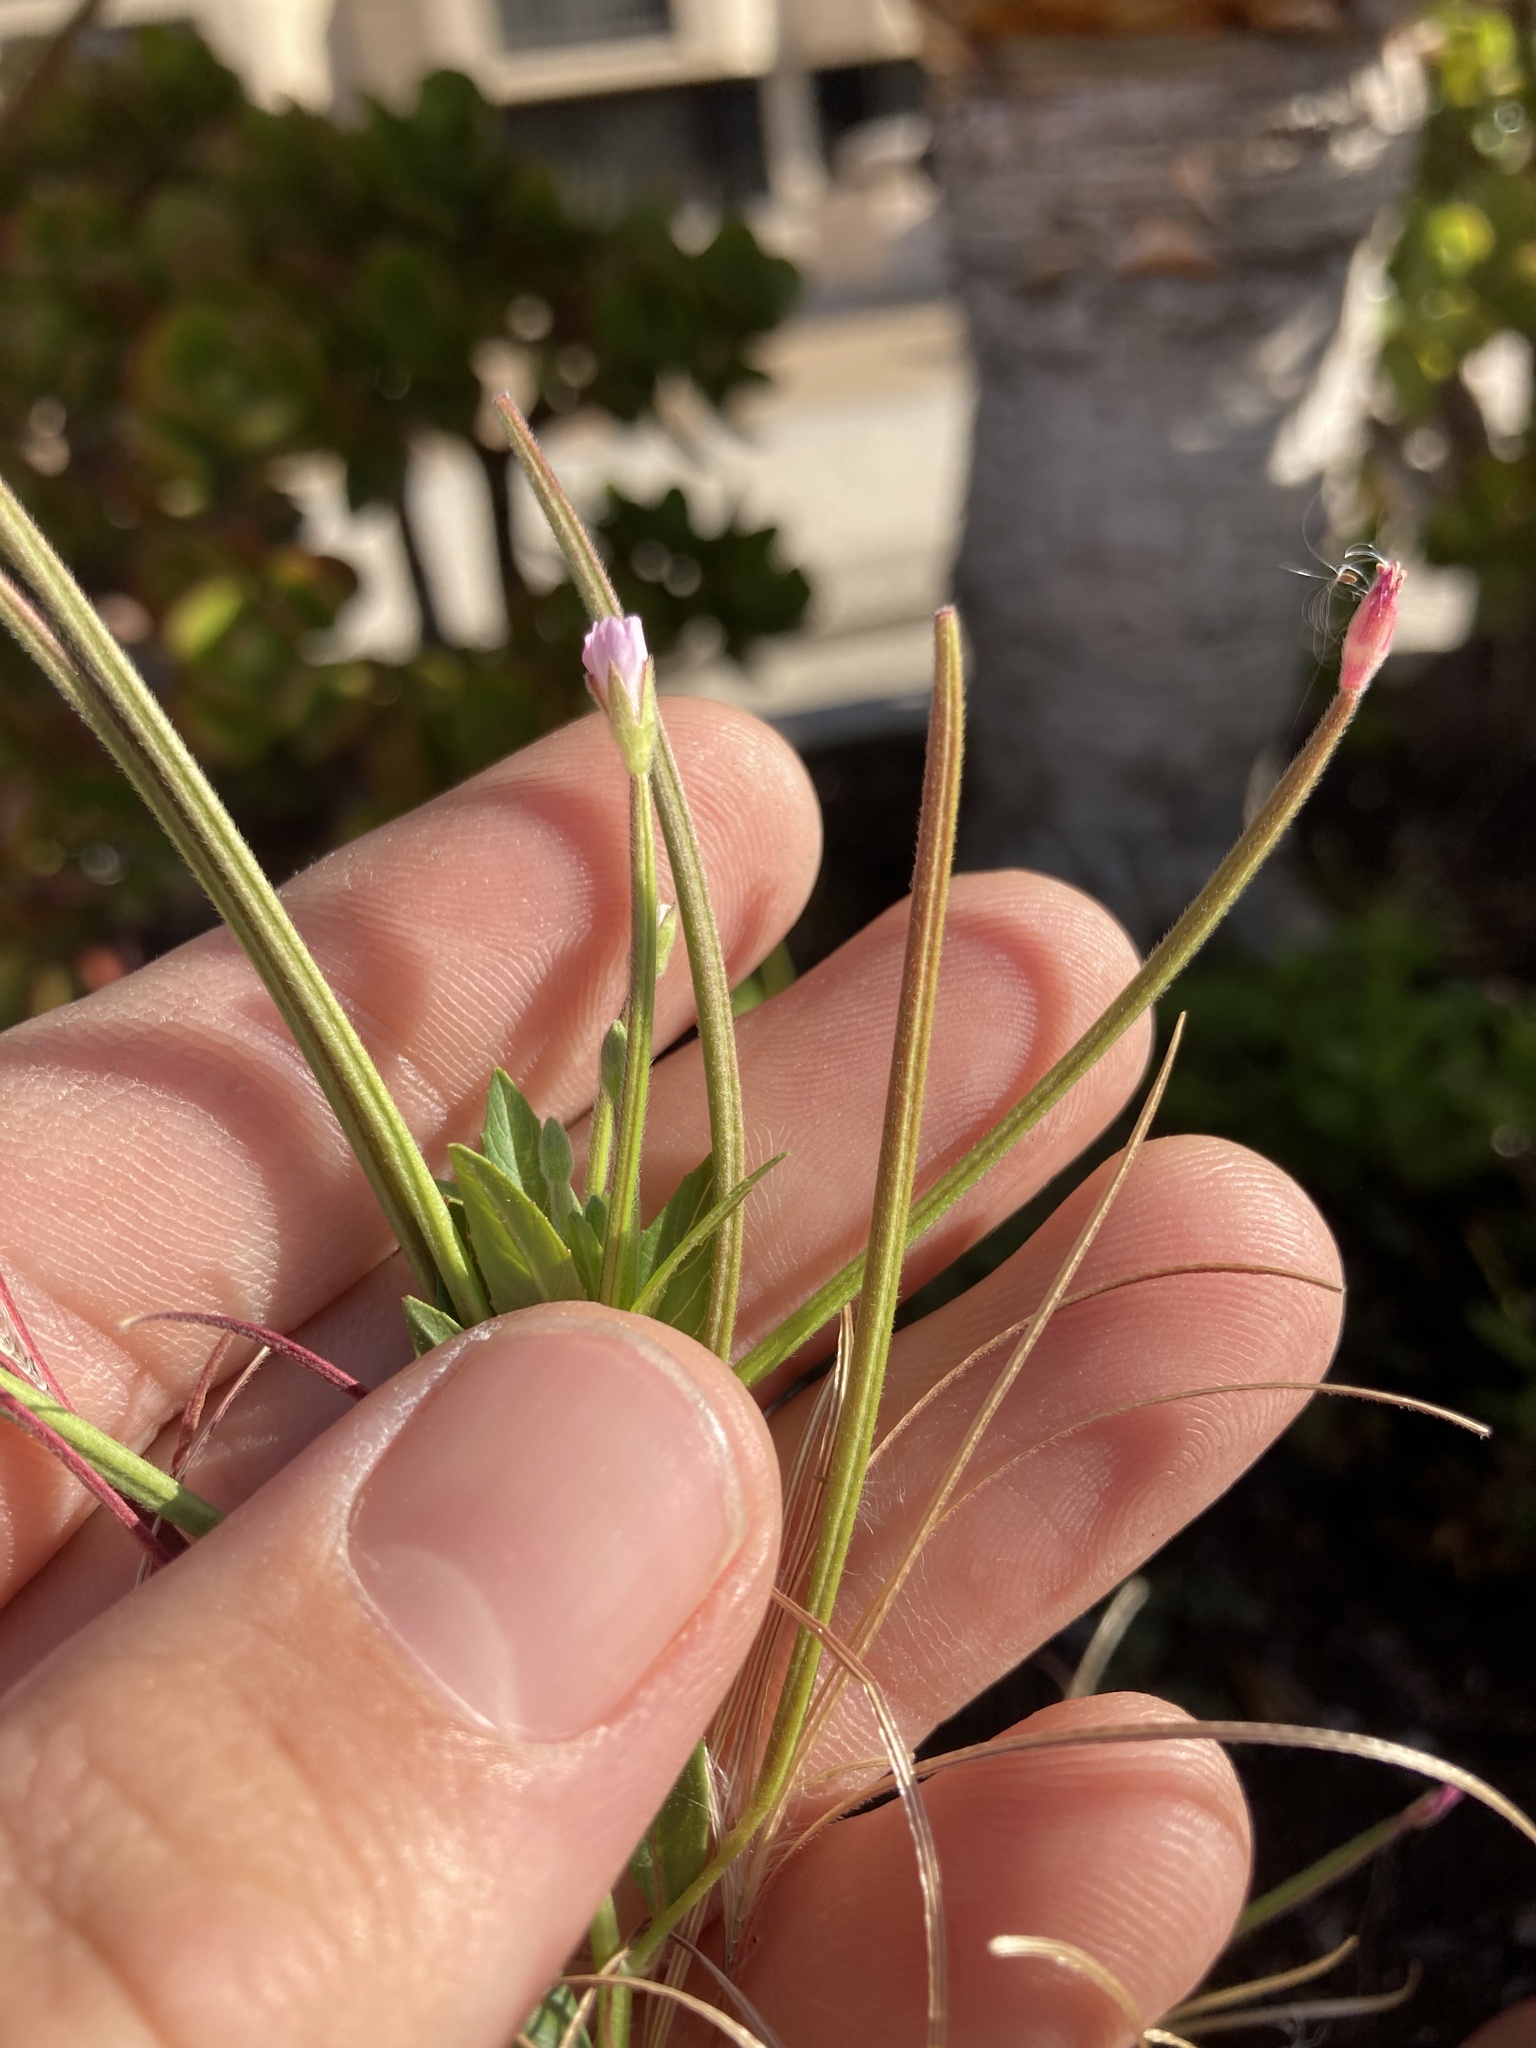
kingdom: Plantae
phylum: Tracheophyta
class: Magnoliopsida
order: Myrtales
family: Onagraceae
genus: Epilobium
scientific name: Epilobium ciliatum
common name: American willowherb
